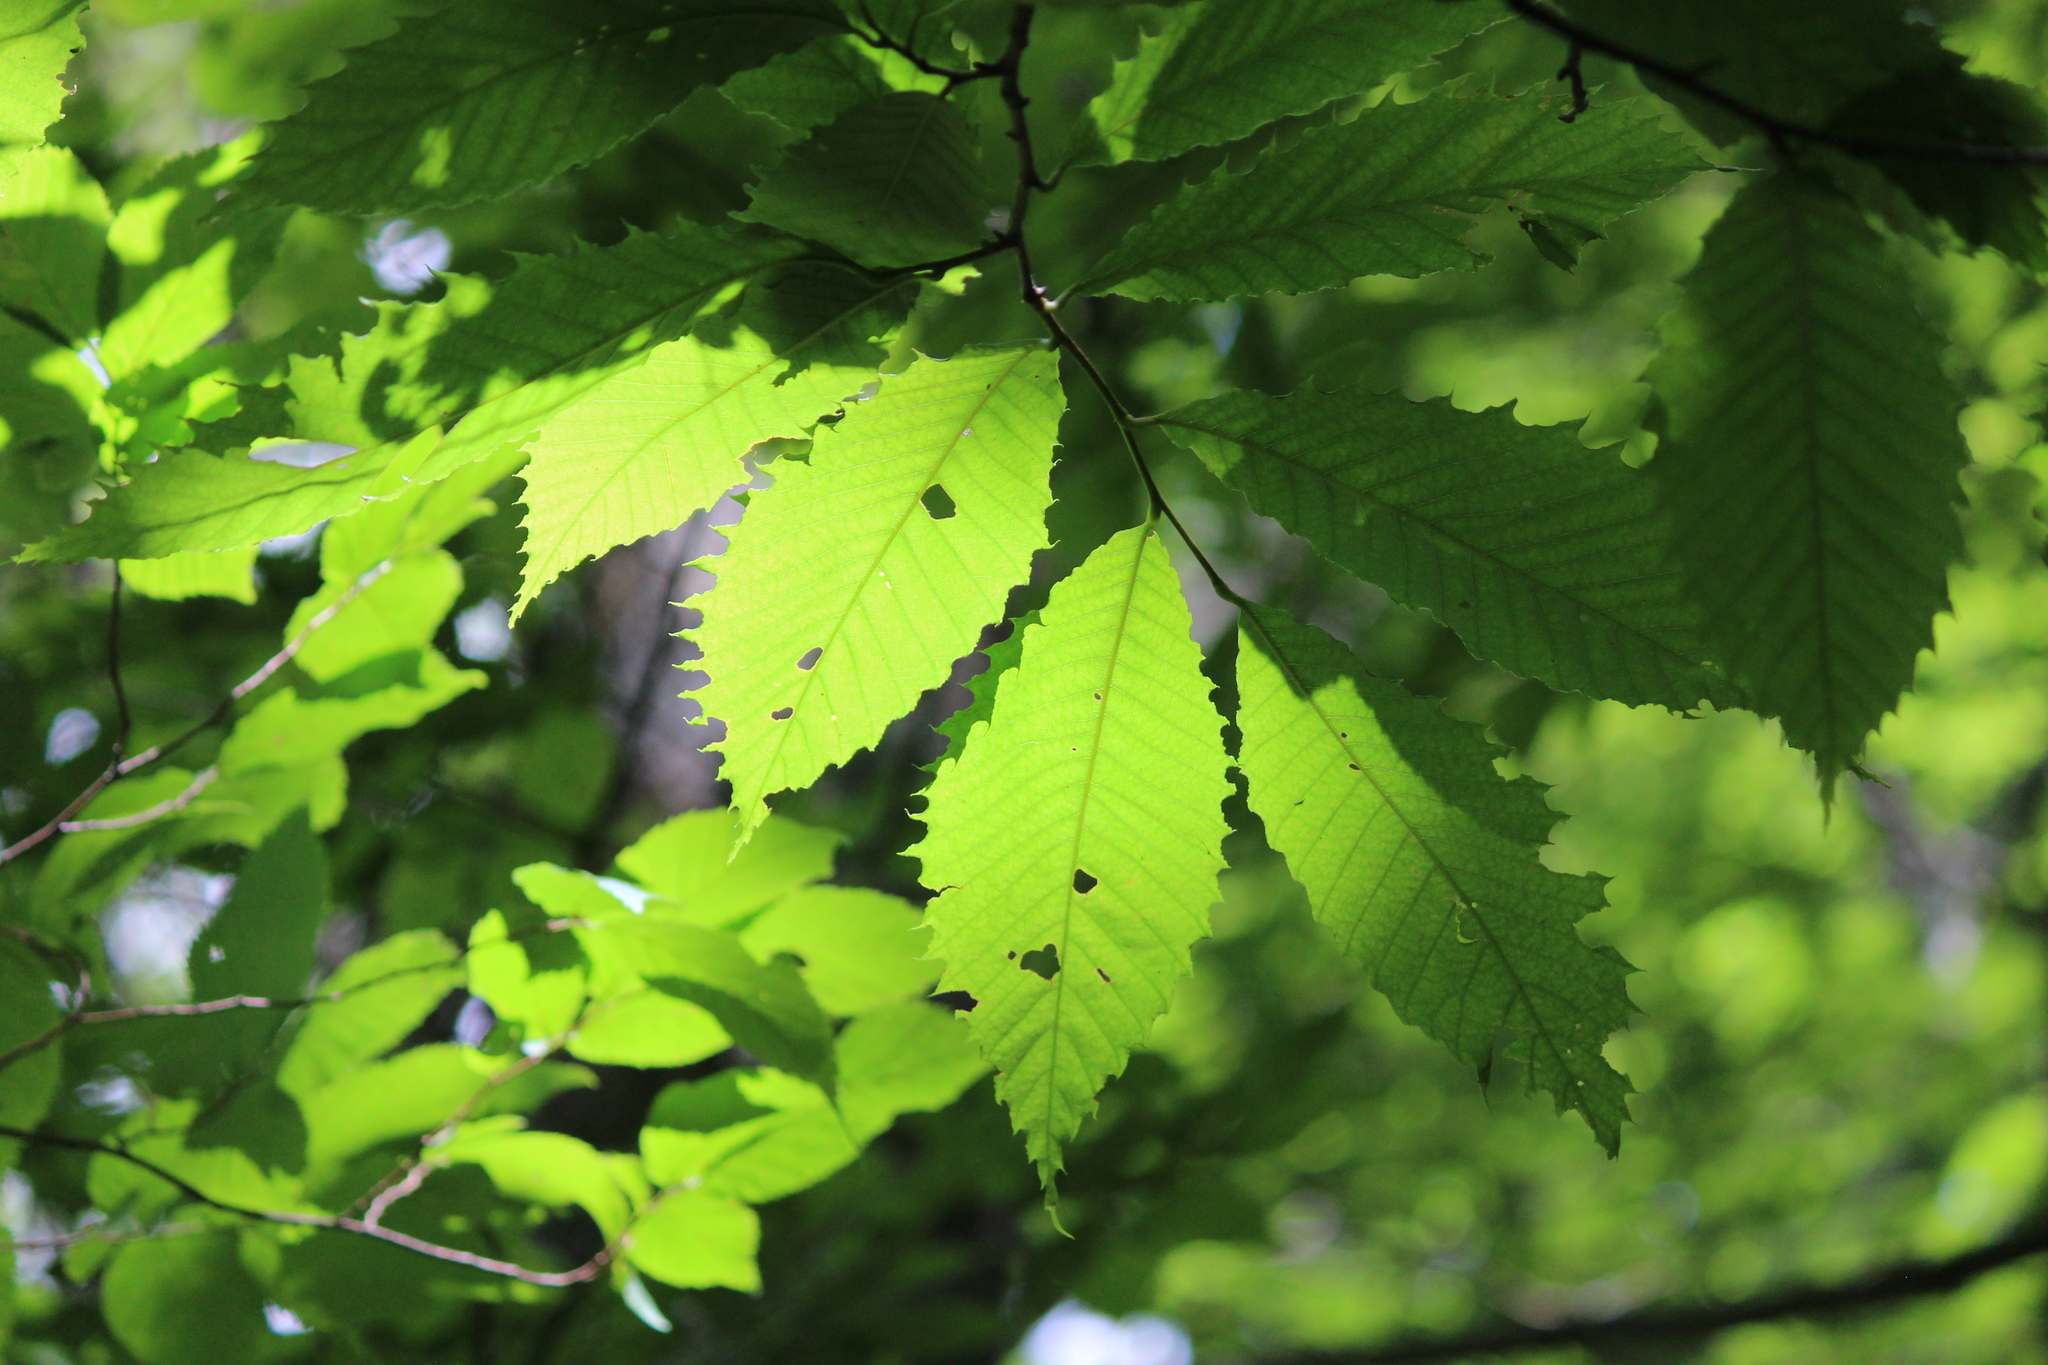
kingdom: Plantae
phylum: Tracheophyta
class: Magnoliopsida
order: Fagales
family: Fagaceae
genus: Castanea
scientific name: Castanea dentata
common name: American chestnut
